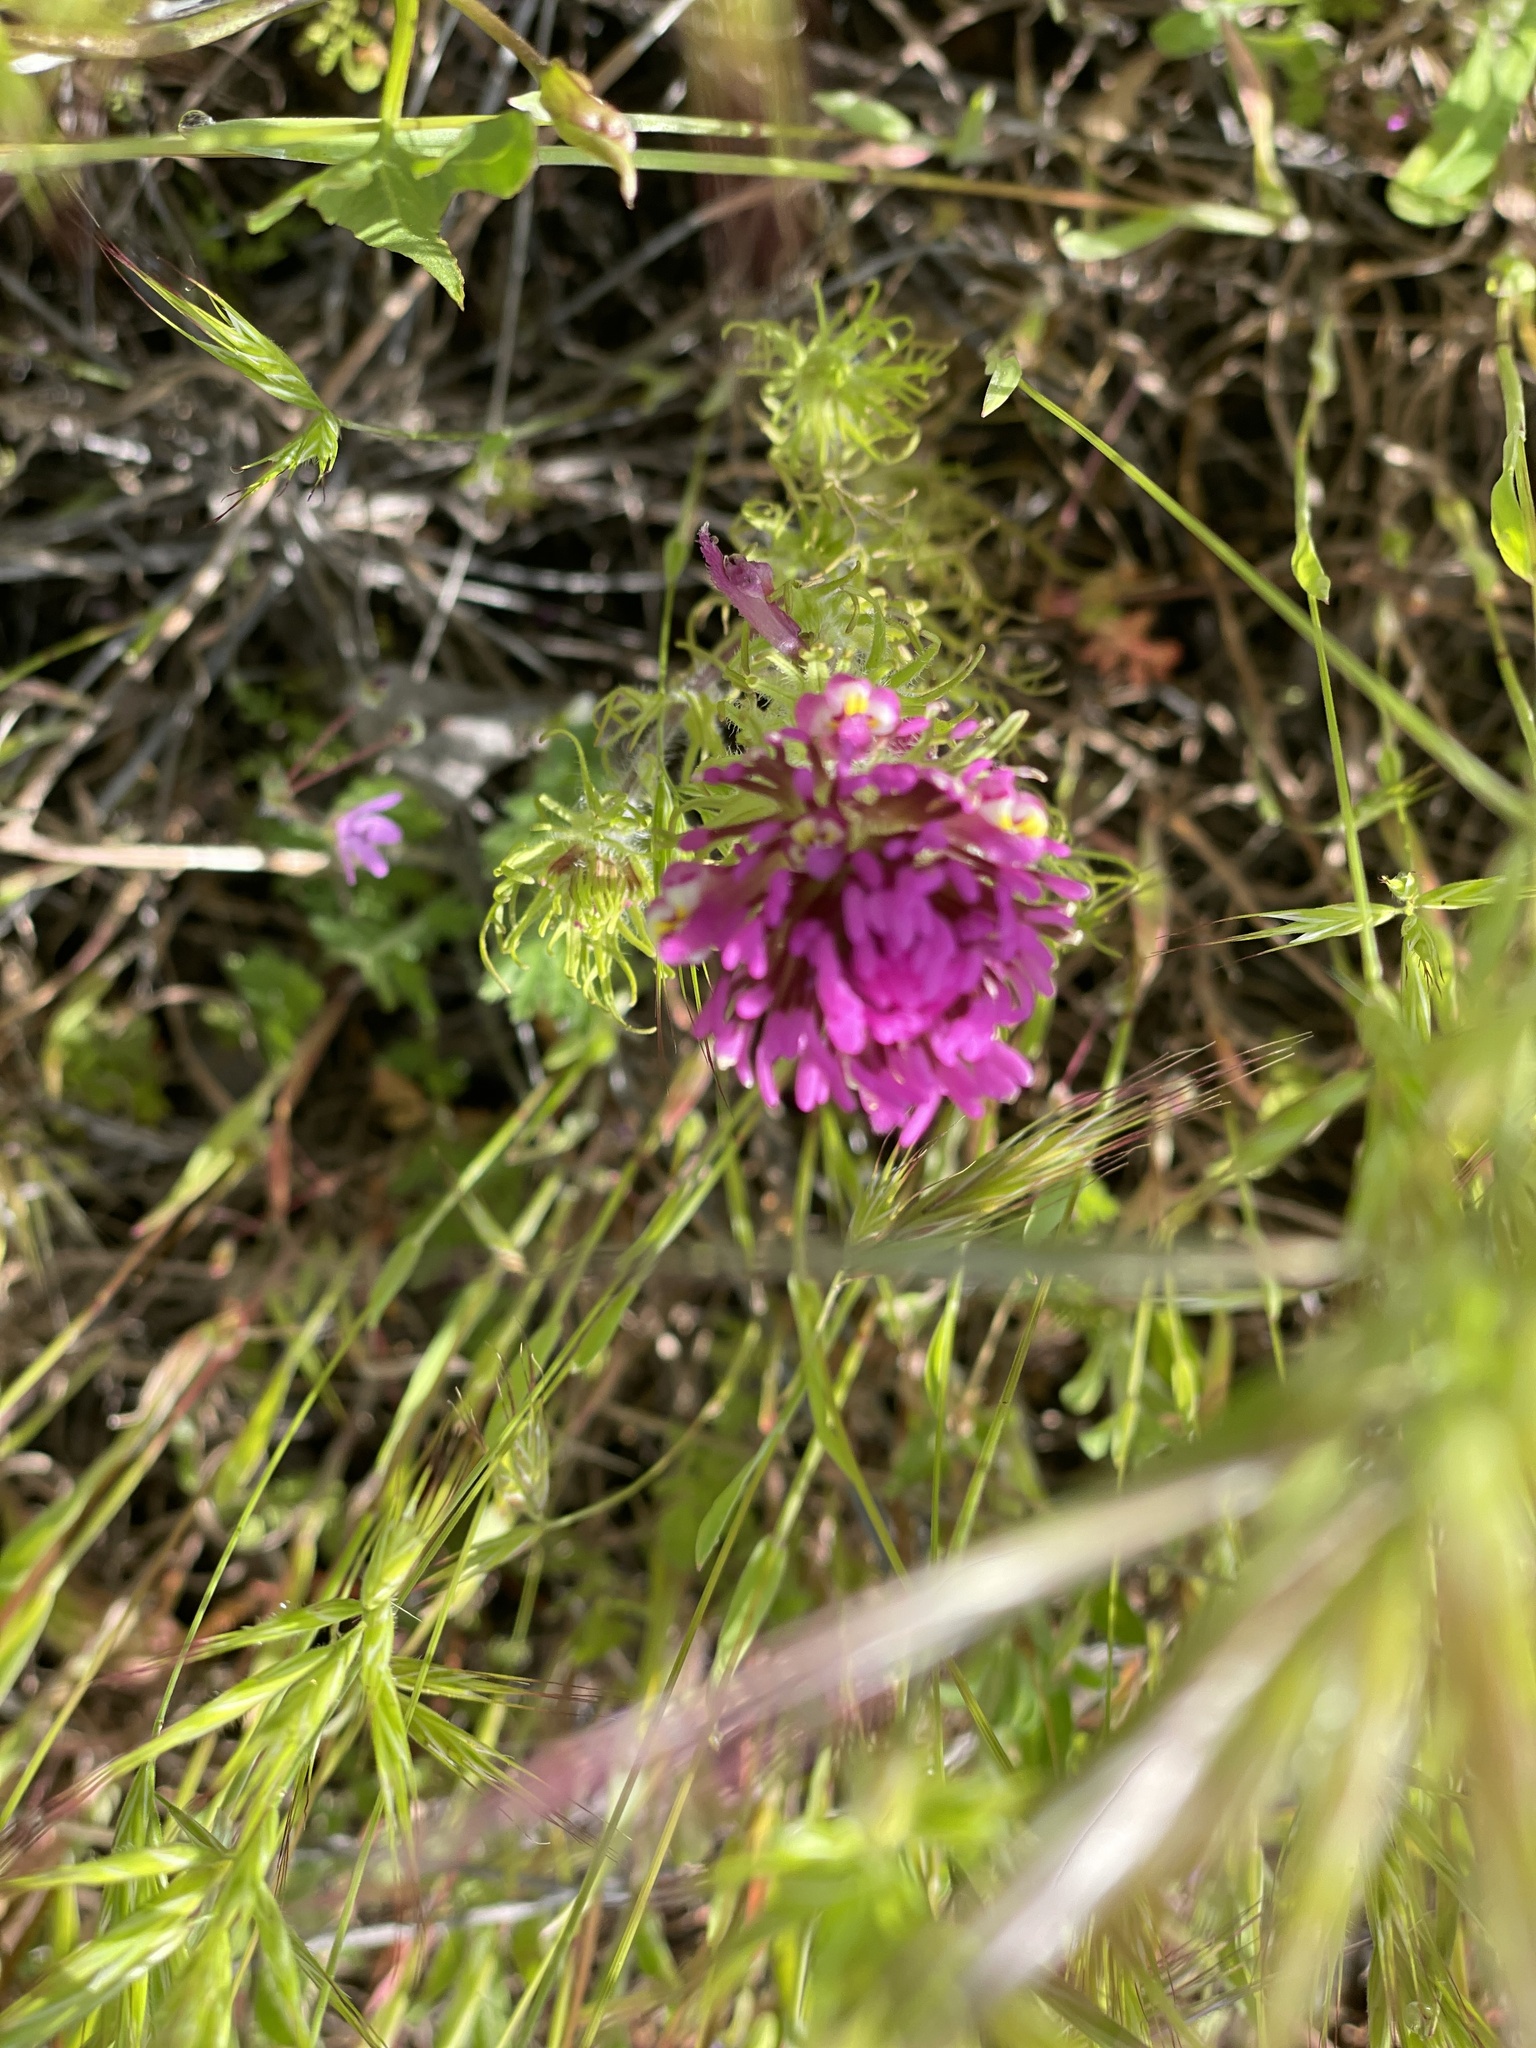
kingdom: Plantae
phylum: Tracheophyta
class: Magnoliopsida
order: Lamiales
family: Orobanchaceae
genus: Castilleja
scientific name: Castilleja exserta
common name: Purple owl-clover
